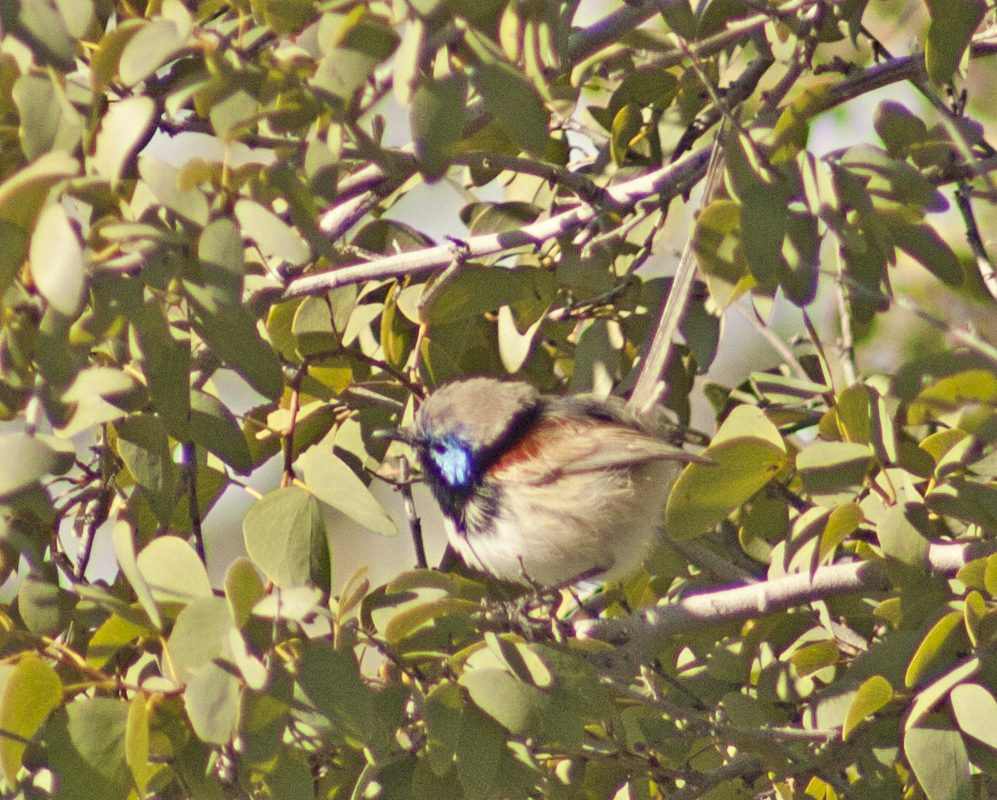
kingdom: Animalia
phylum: Chordata
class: Aves
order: Passeriformes
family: Maluridae
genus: Malurus
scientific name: Malurus assimilis
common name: Purple-backed fairywren
